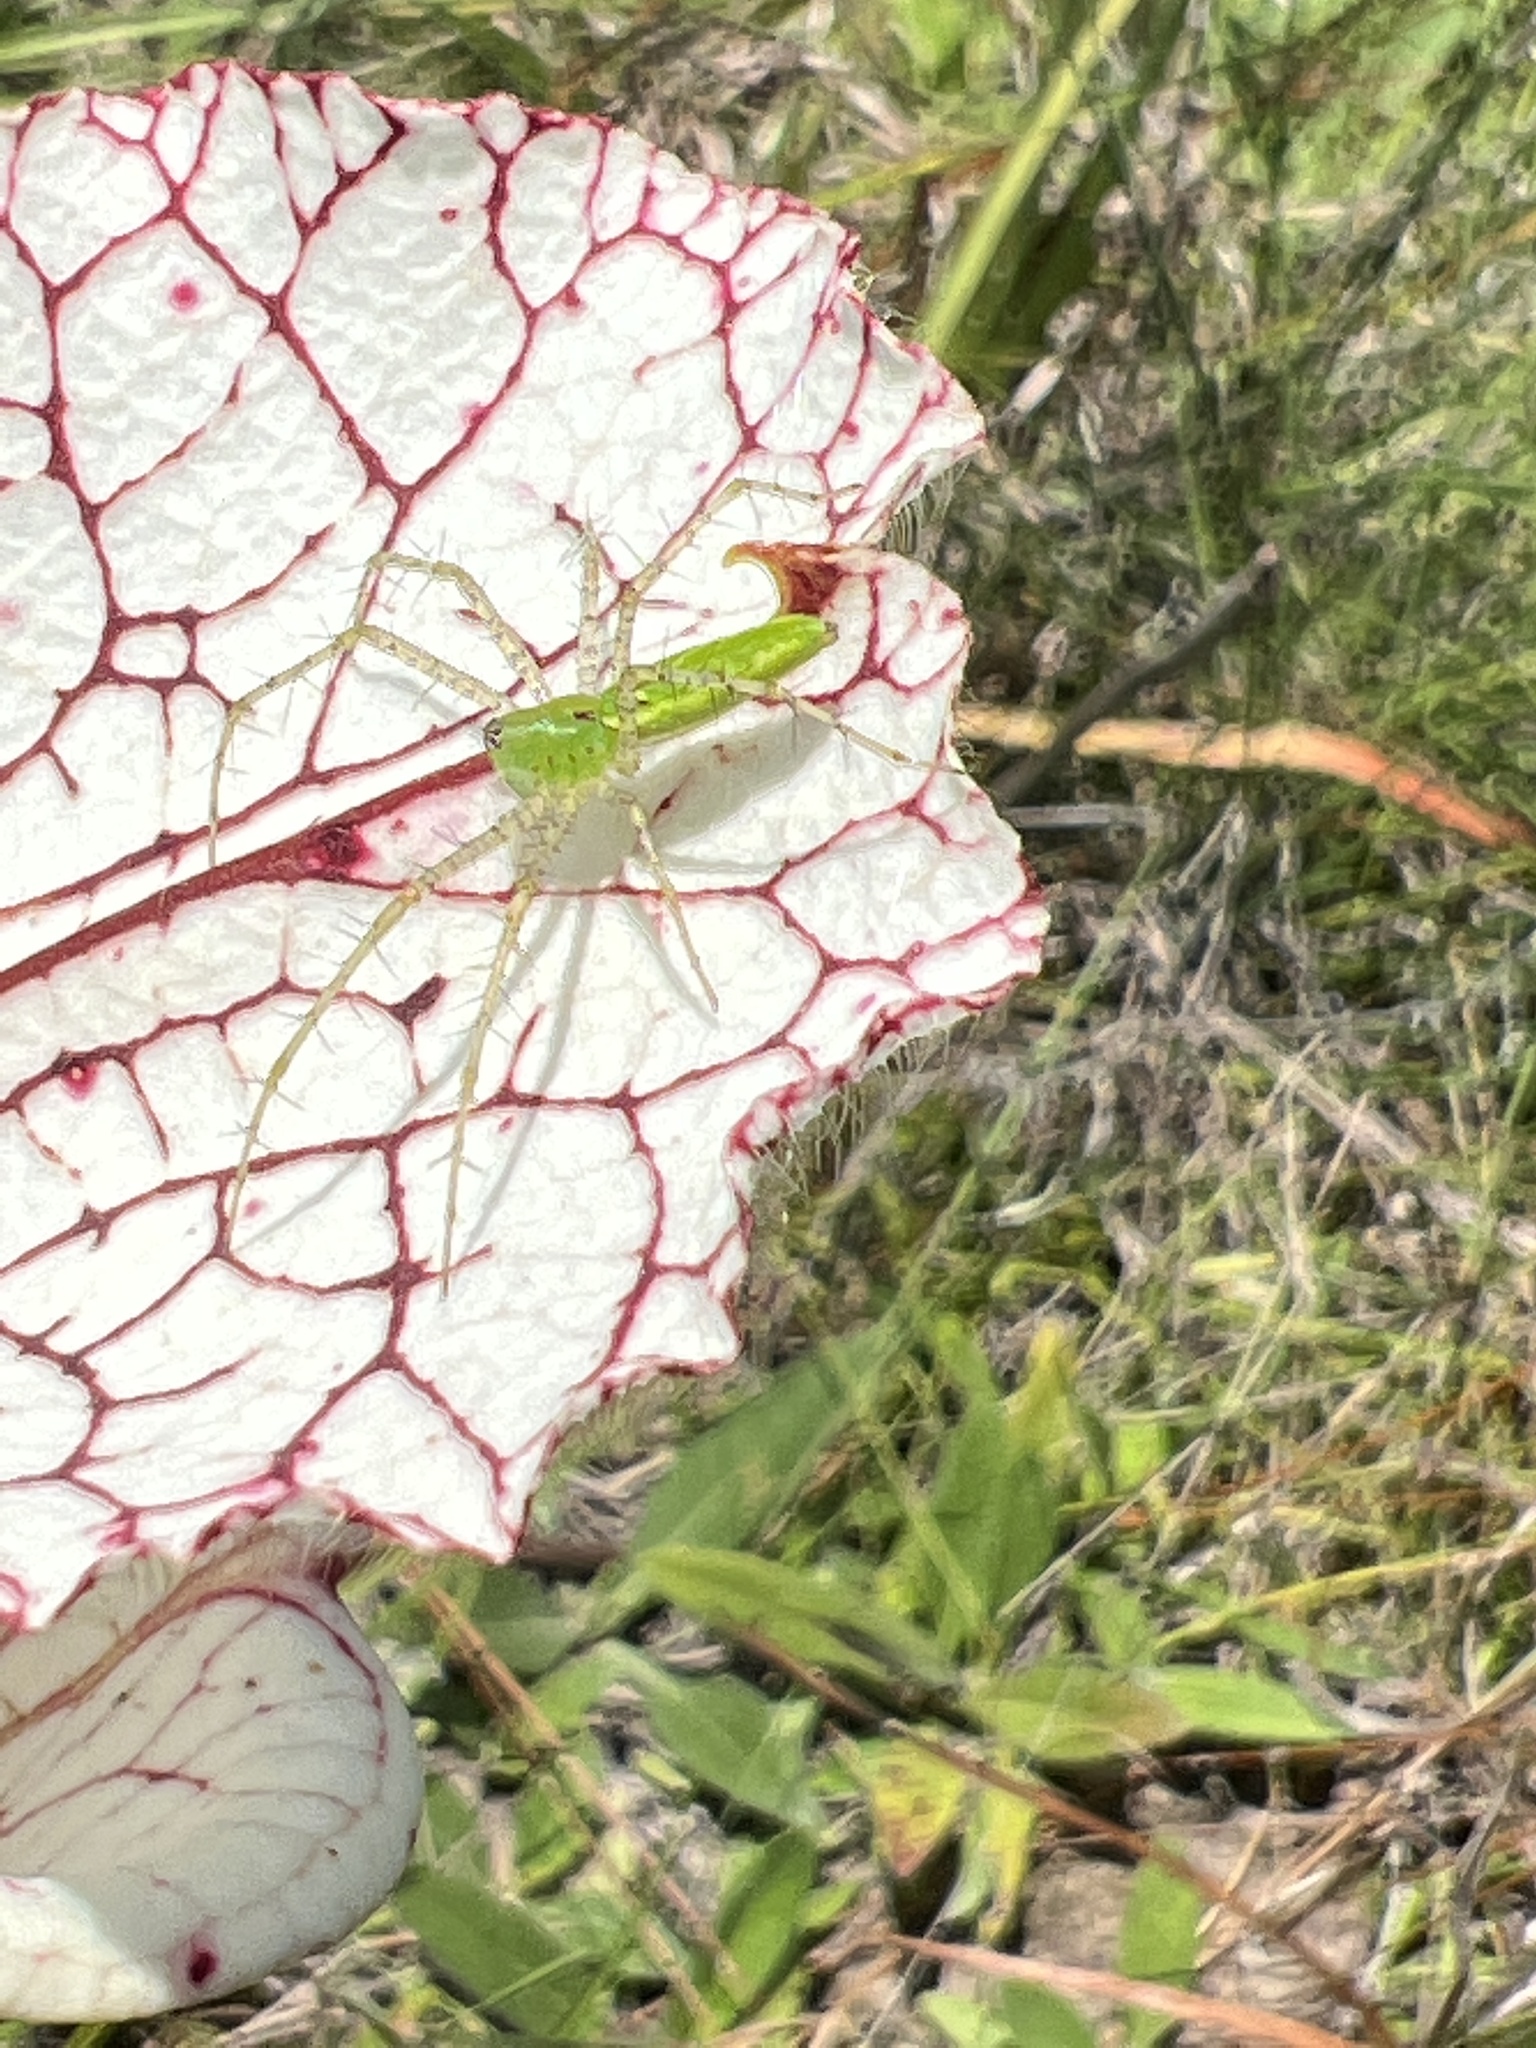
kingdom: Animalia
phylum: Arthropoda
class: Arachnida
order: Araneae
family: Oxyopidae
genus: Peucetia
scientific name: Peucetia viridans
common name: Lynx spiders
